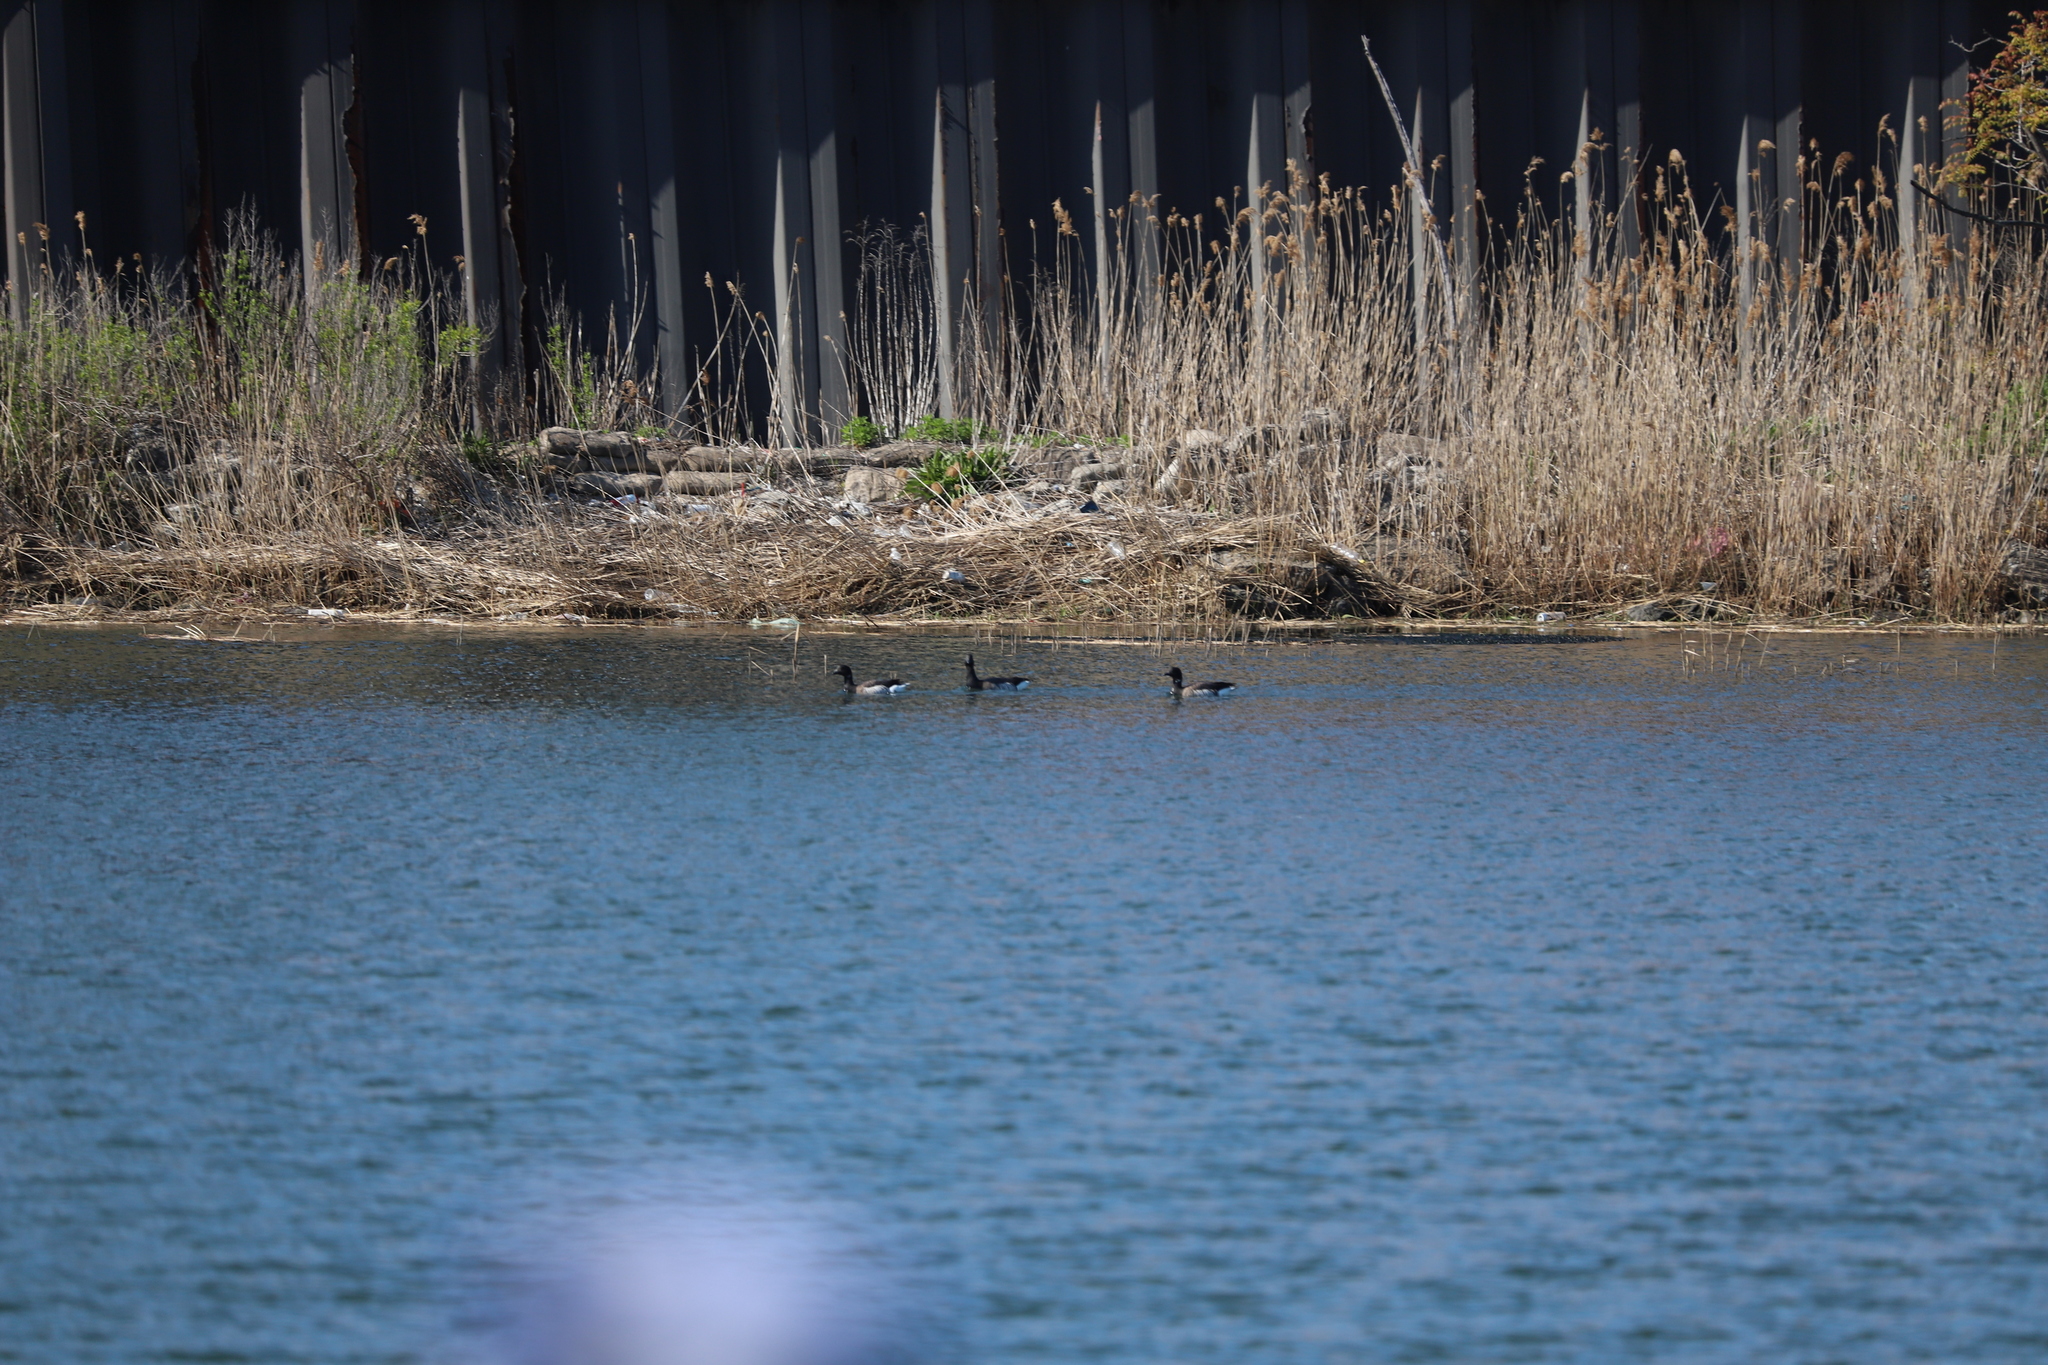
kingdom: Animalia
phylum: Chordata
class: Aves
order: Anseriformes
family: Anatidae
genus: Branta
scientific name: Branta bernicla
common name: Brant goose
